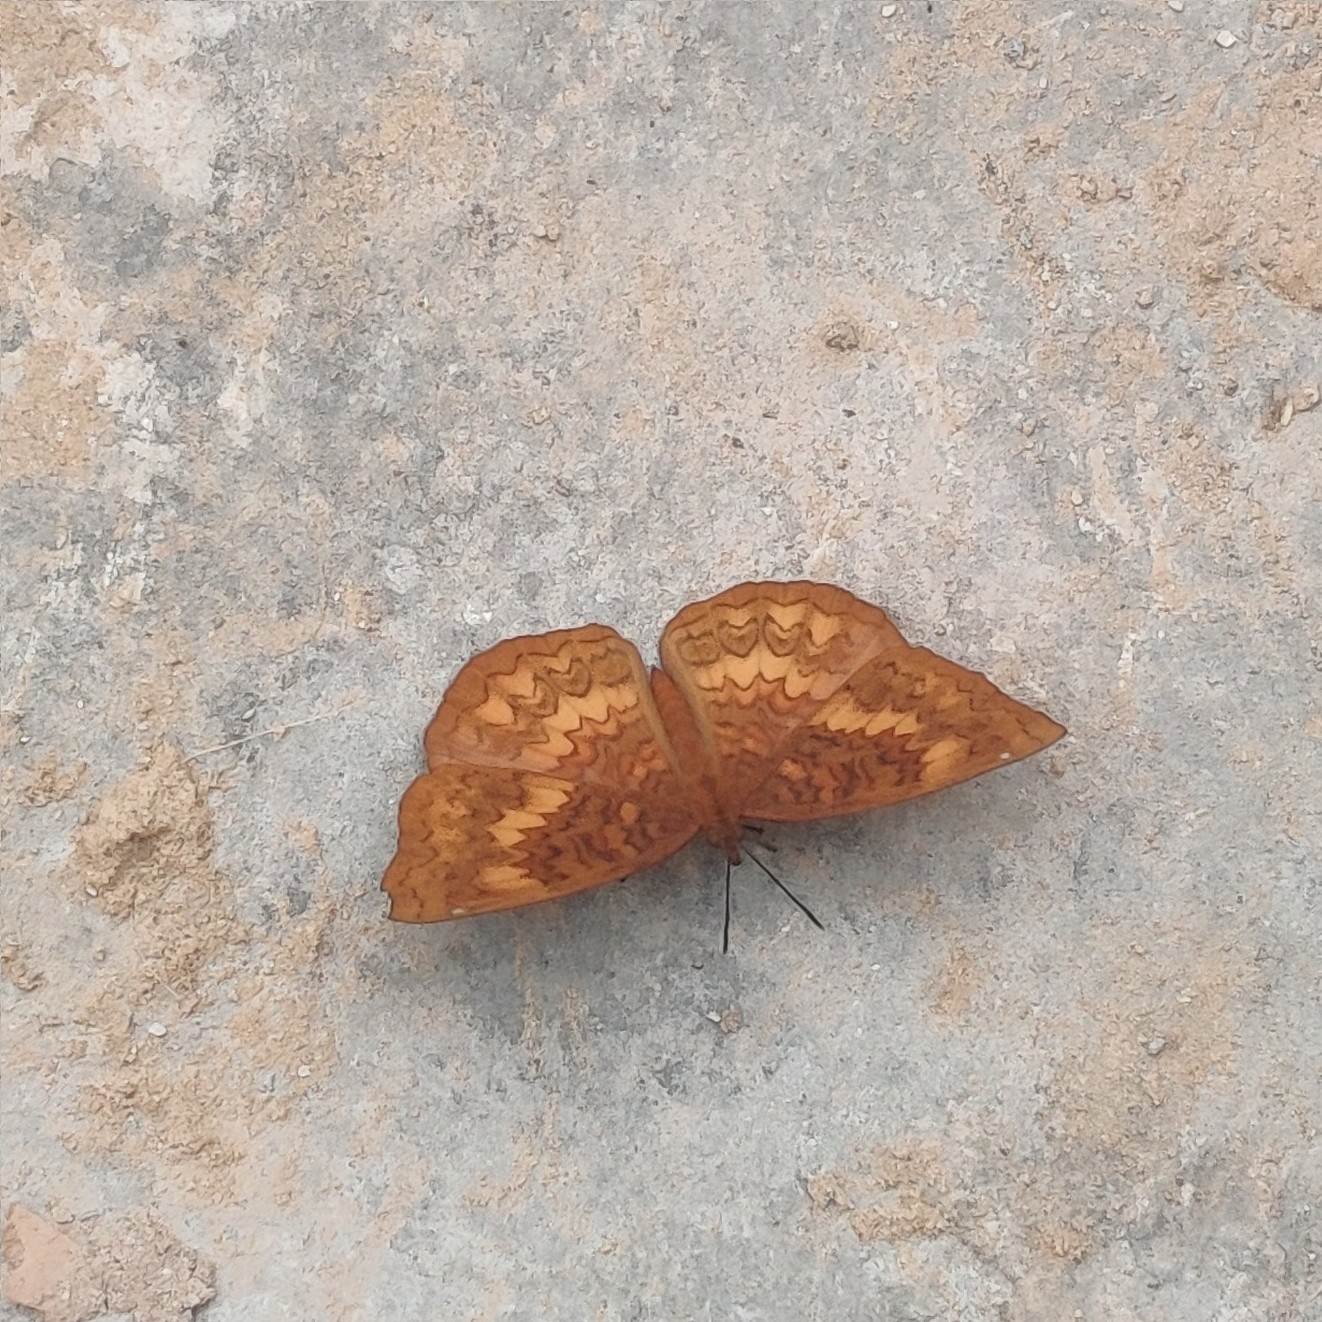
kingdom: Animalia
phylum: Arthropoda
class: Insecta
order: Lepidoptera
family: Nymphalidae
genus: Ariadne
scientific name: Ariadne merione
